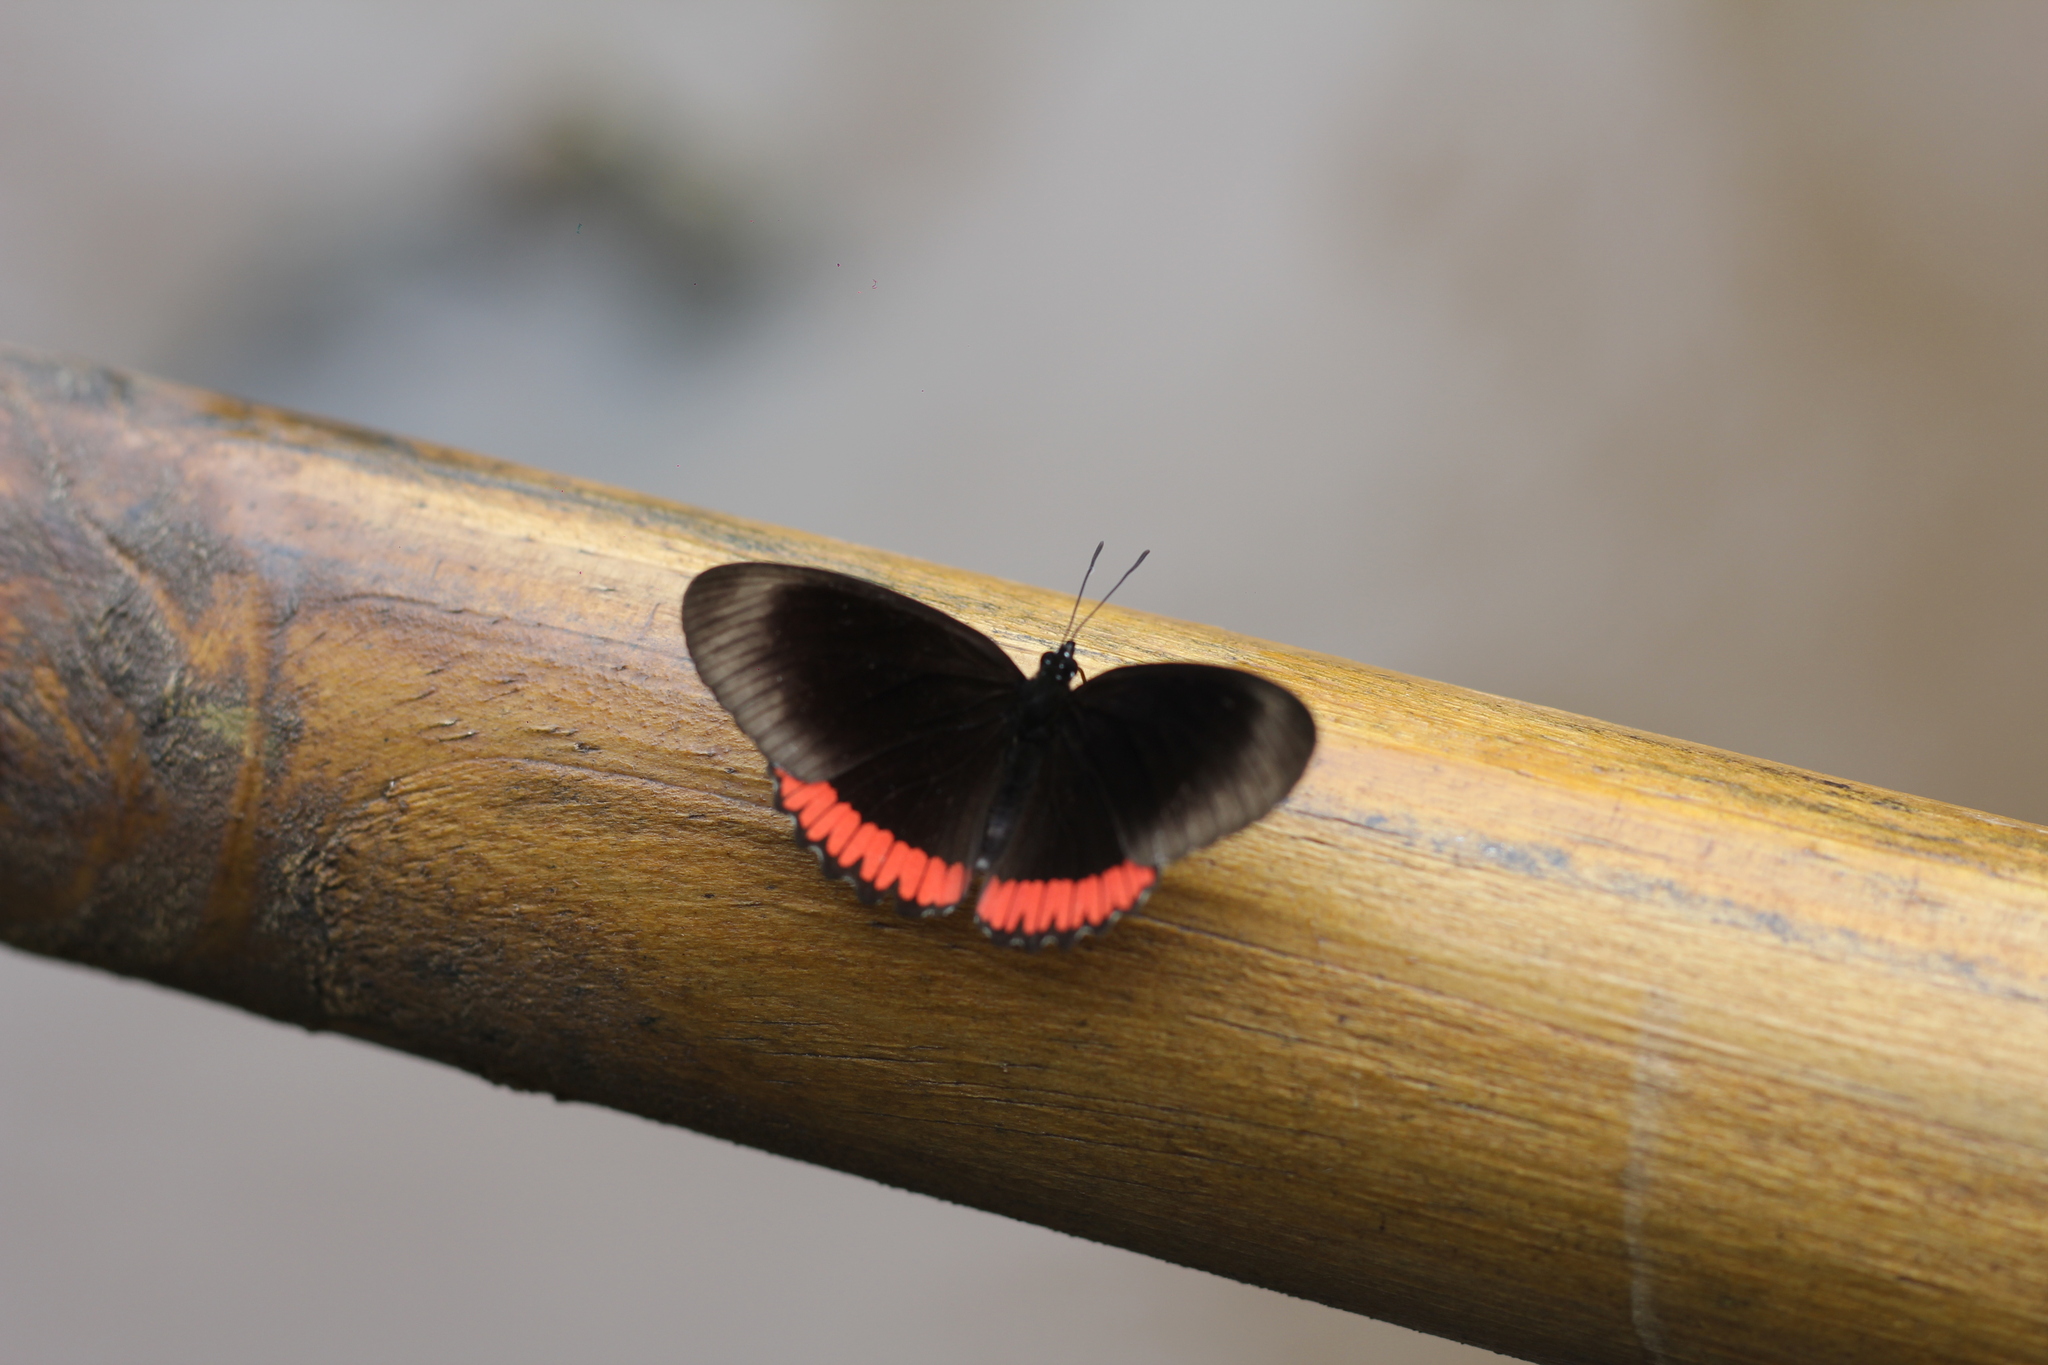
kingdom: Animalia
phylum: Arthropoda
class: Insecta
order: Lepidoptera
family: Sesiidae
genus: Sesia
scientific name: Sesia Biblis hyperia
